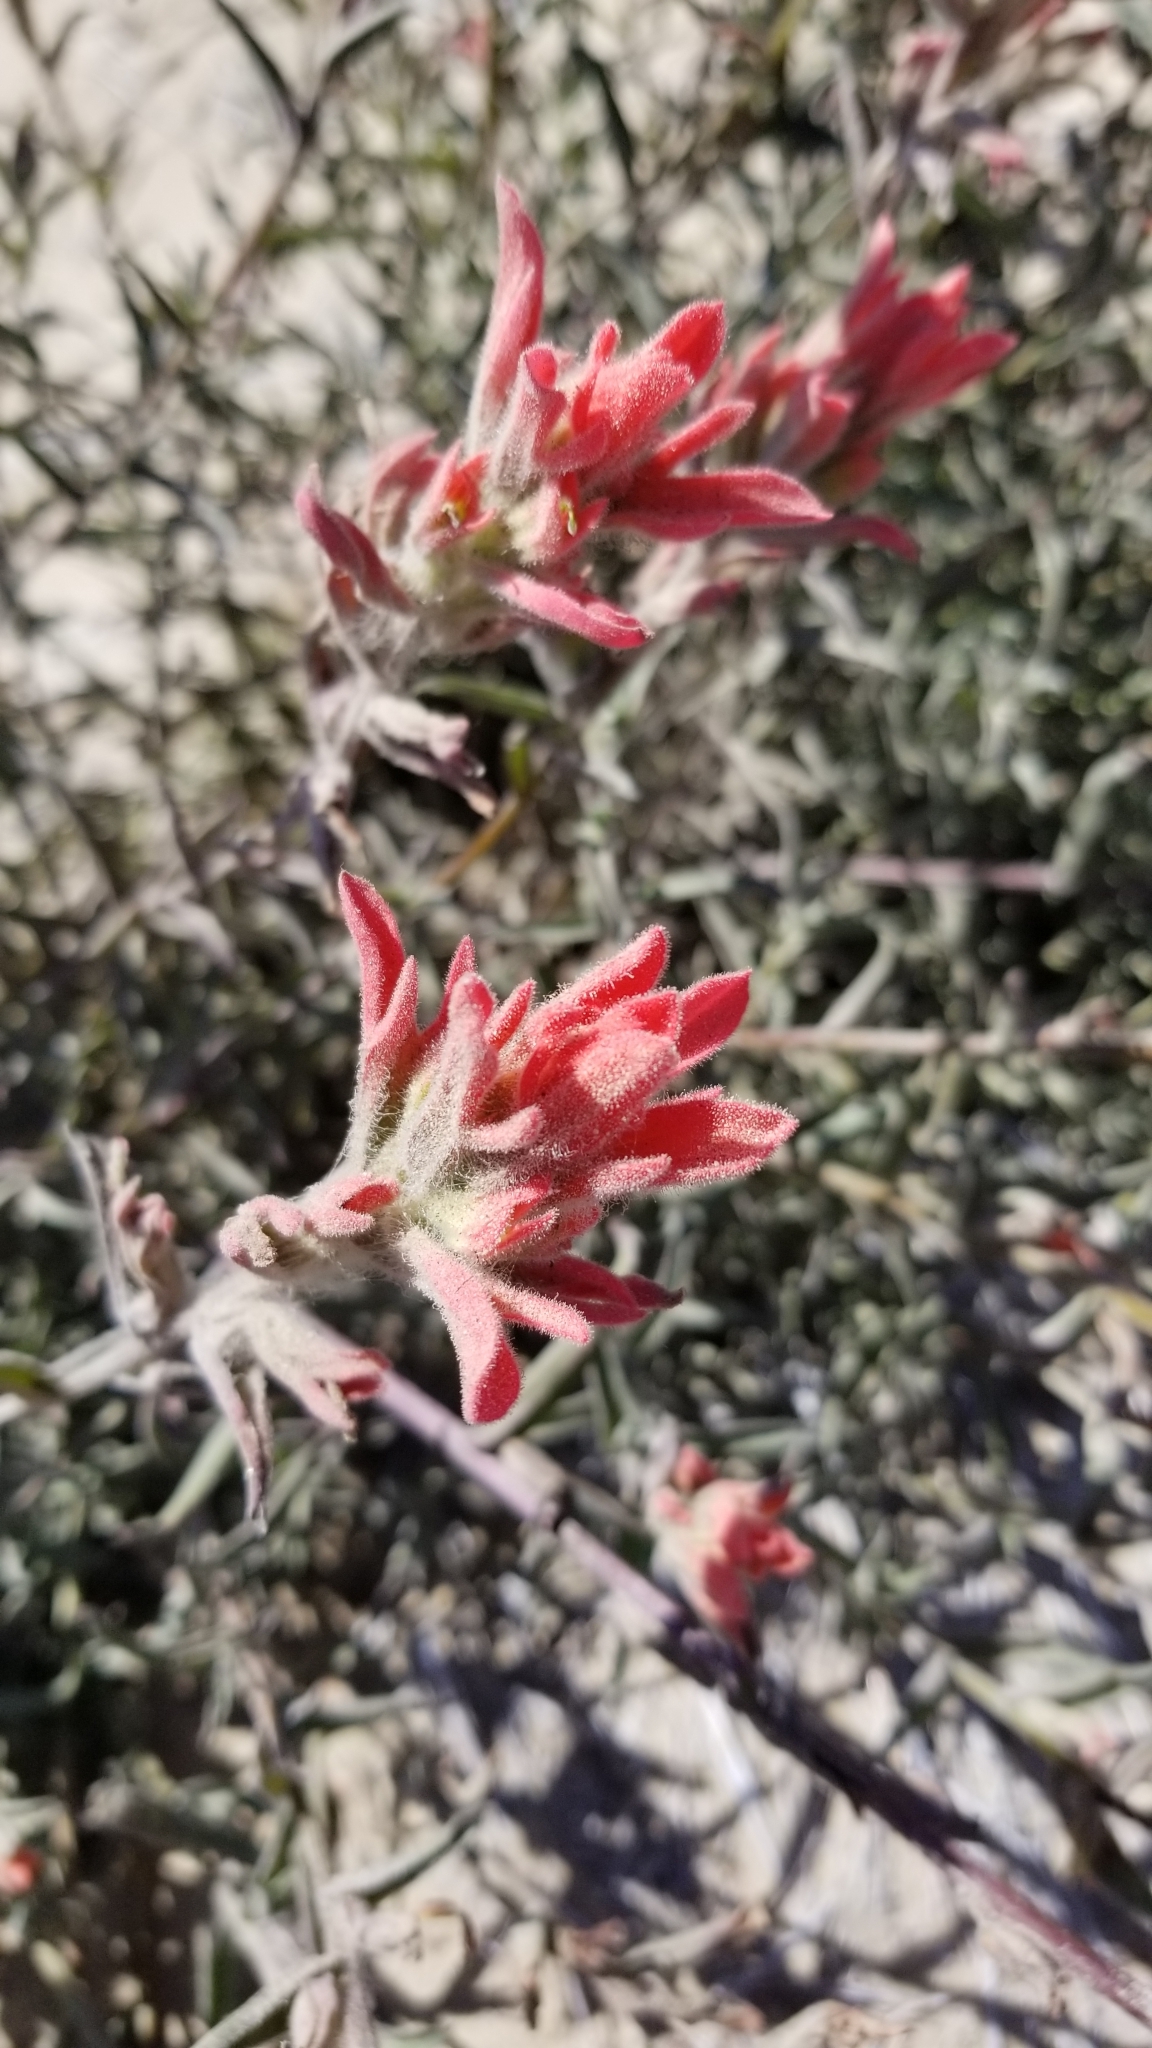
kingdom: Plantae
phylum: Tracheophyta
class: Magnoliopsida
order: Lamiales
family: Orobanchaceae
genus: Castilleja
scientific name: Castilleja foliolosa
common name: Woolly indian paintbrush
